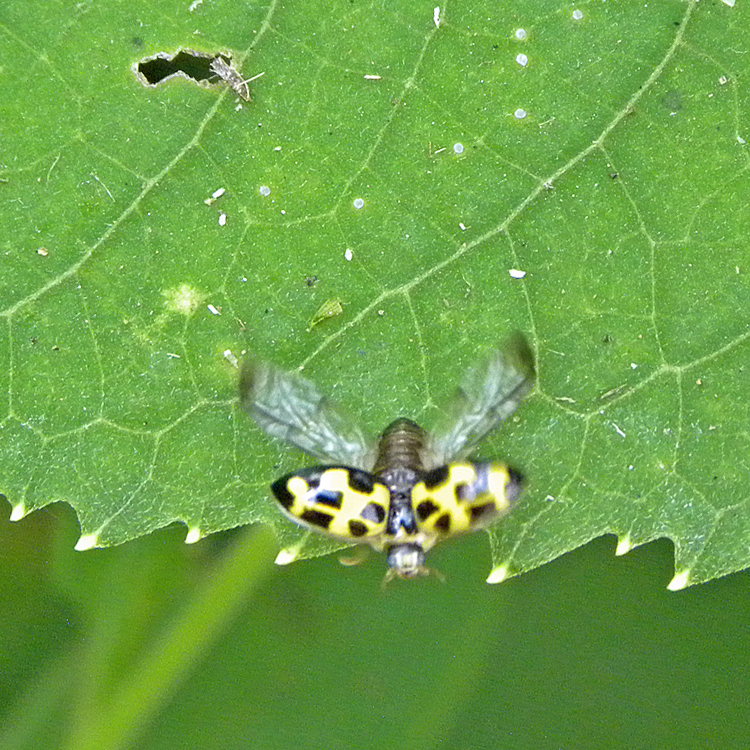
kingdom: Animalia
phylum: Arthropoda
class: Insecta
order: Coleoptera
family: Coccinellidae
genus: Propylaea
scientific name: Propylaea quatuordecimpunctata
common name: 14-spotted ladybird beetle
